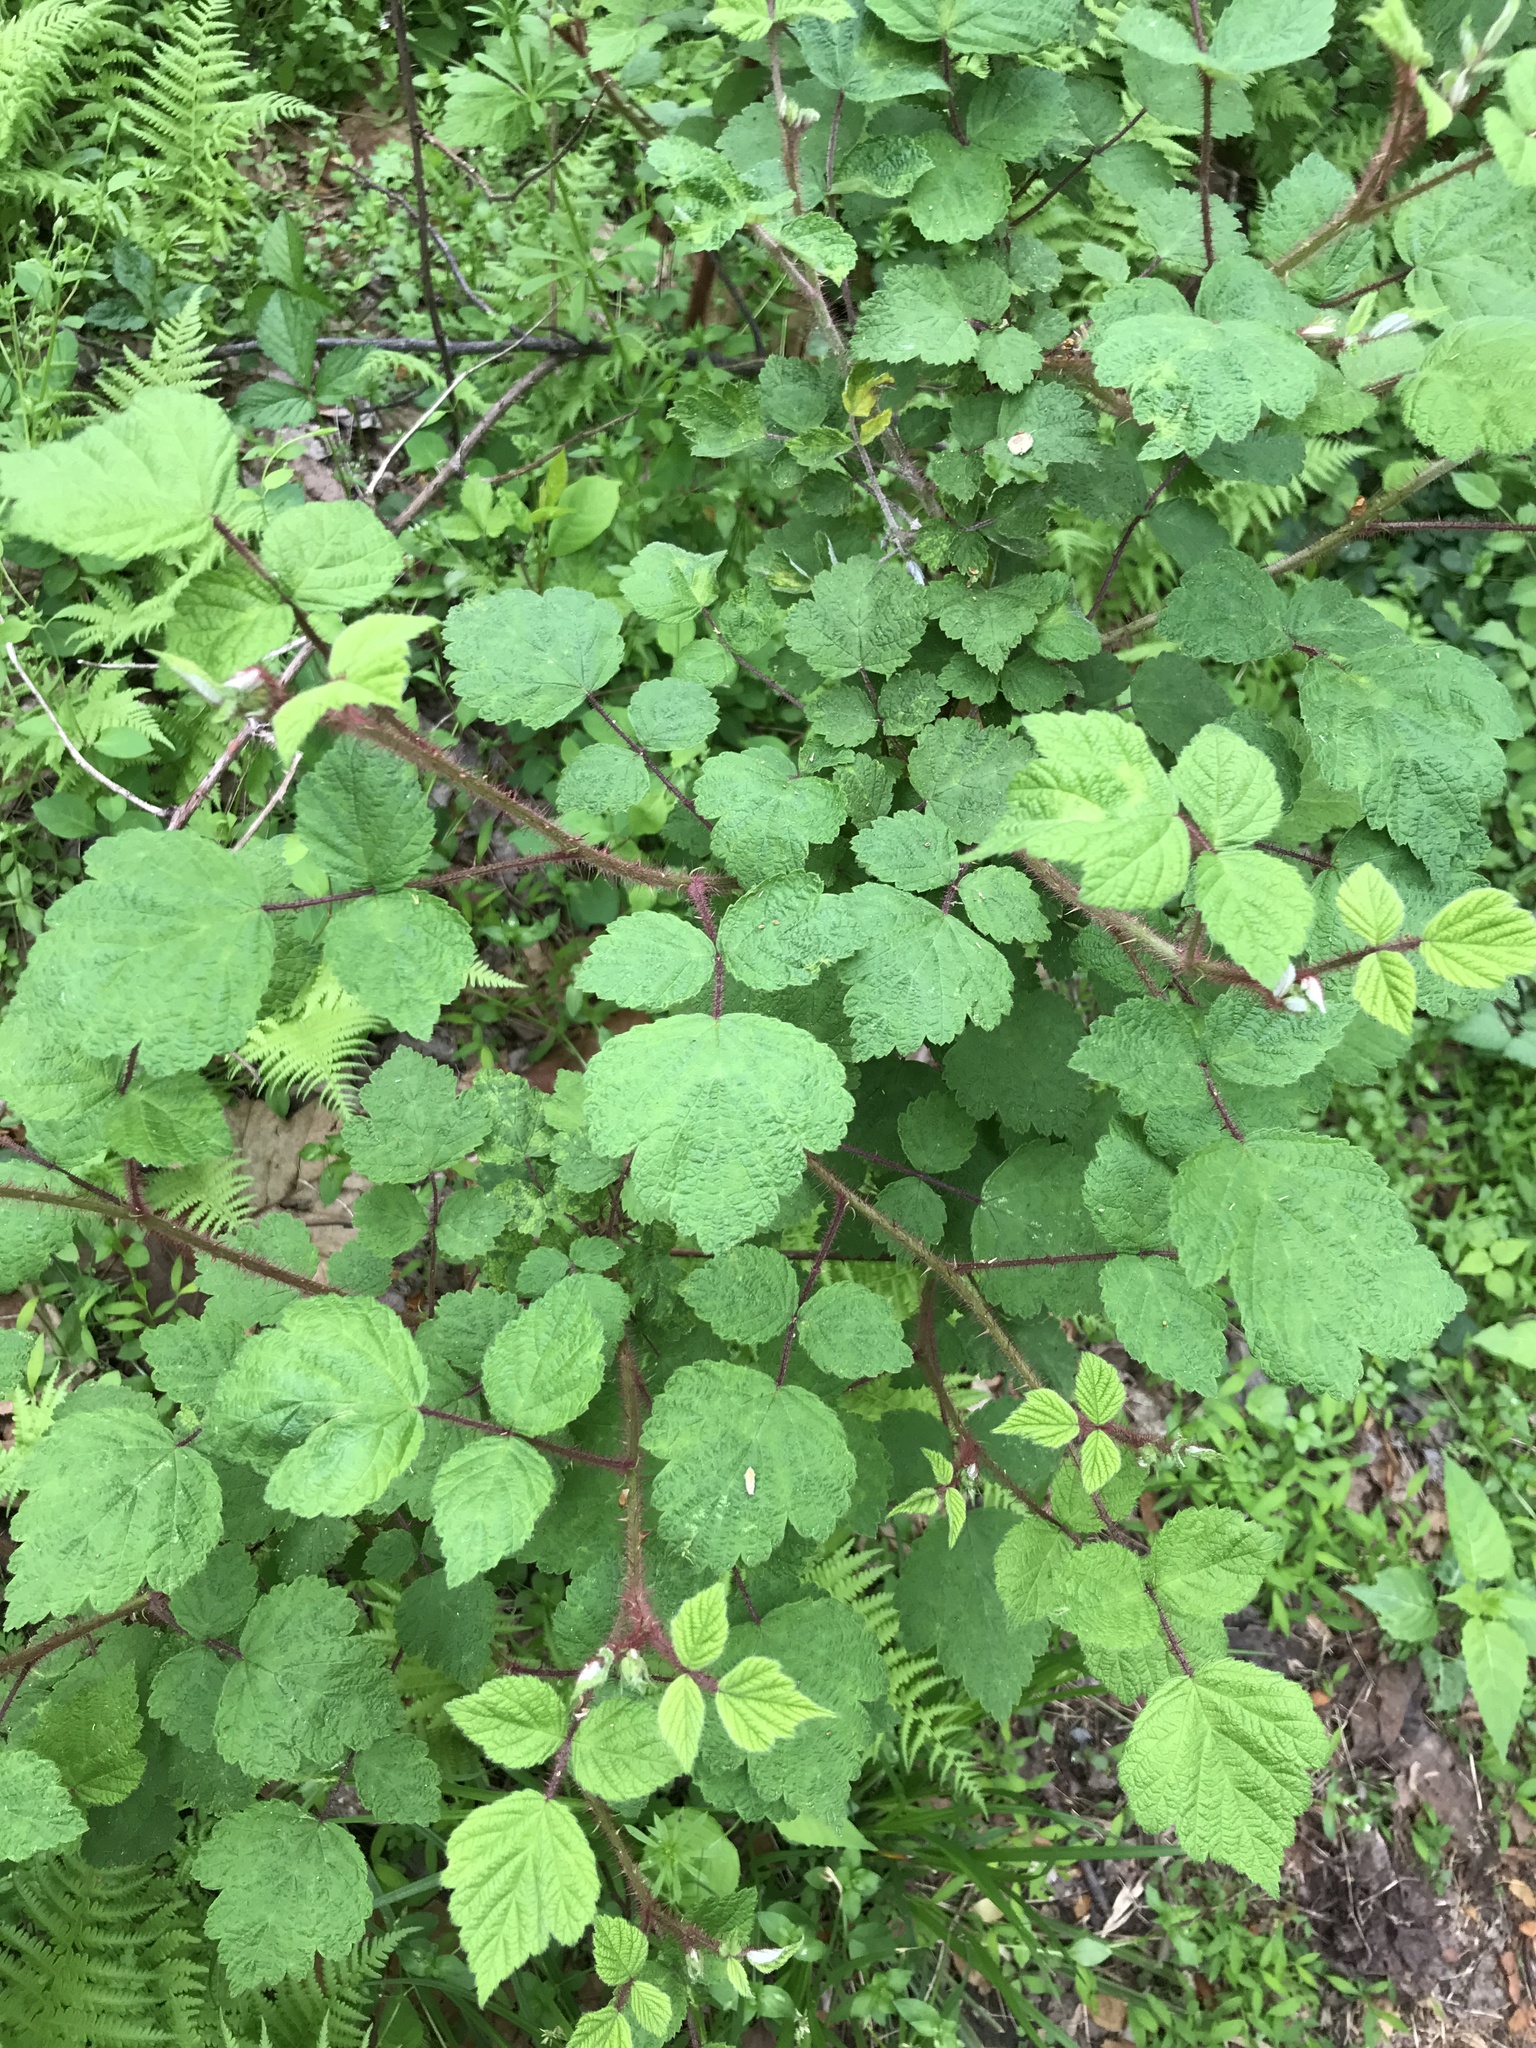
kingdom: Plantae
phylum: Tracheophyta
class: Magnoliopsida
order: Rosales
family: Rosaceae
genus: Rubus
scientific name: Rubus phoenicolasius
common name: Japanese wineberry
